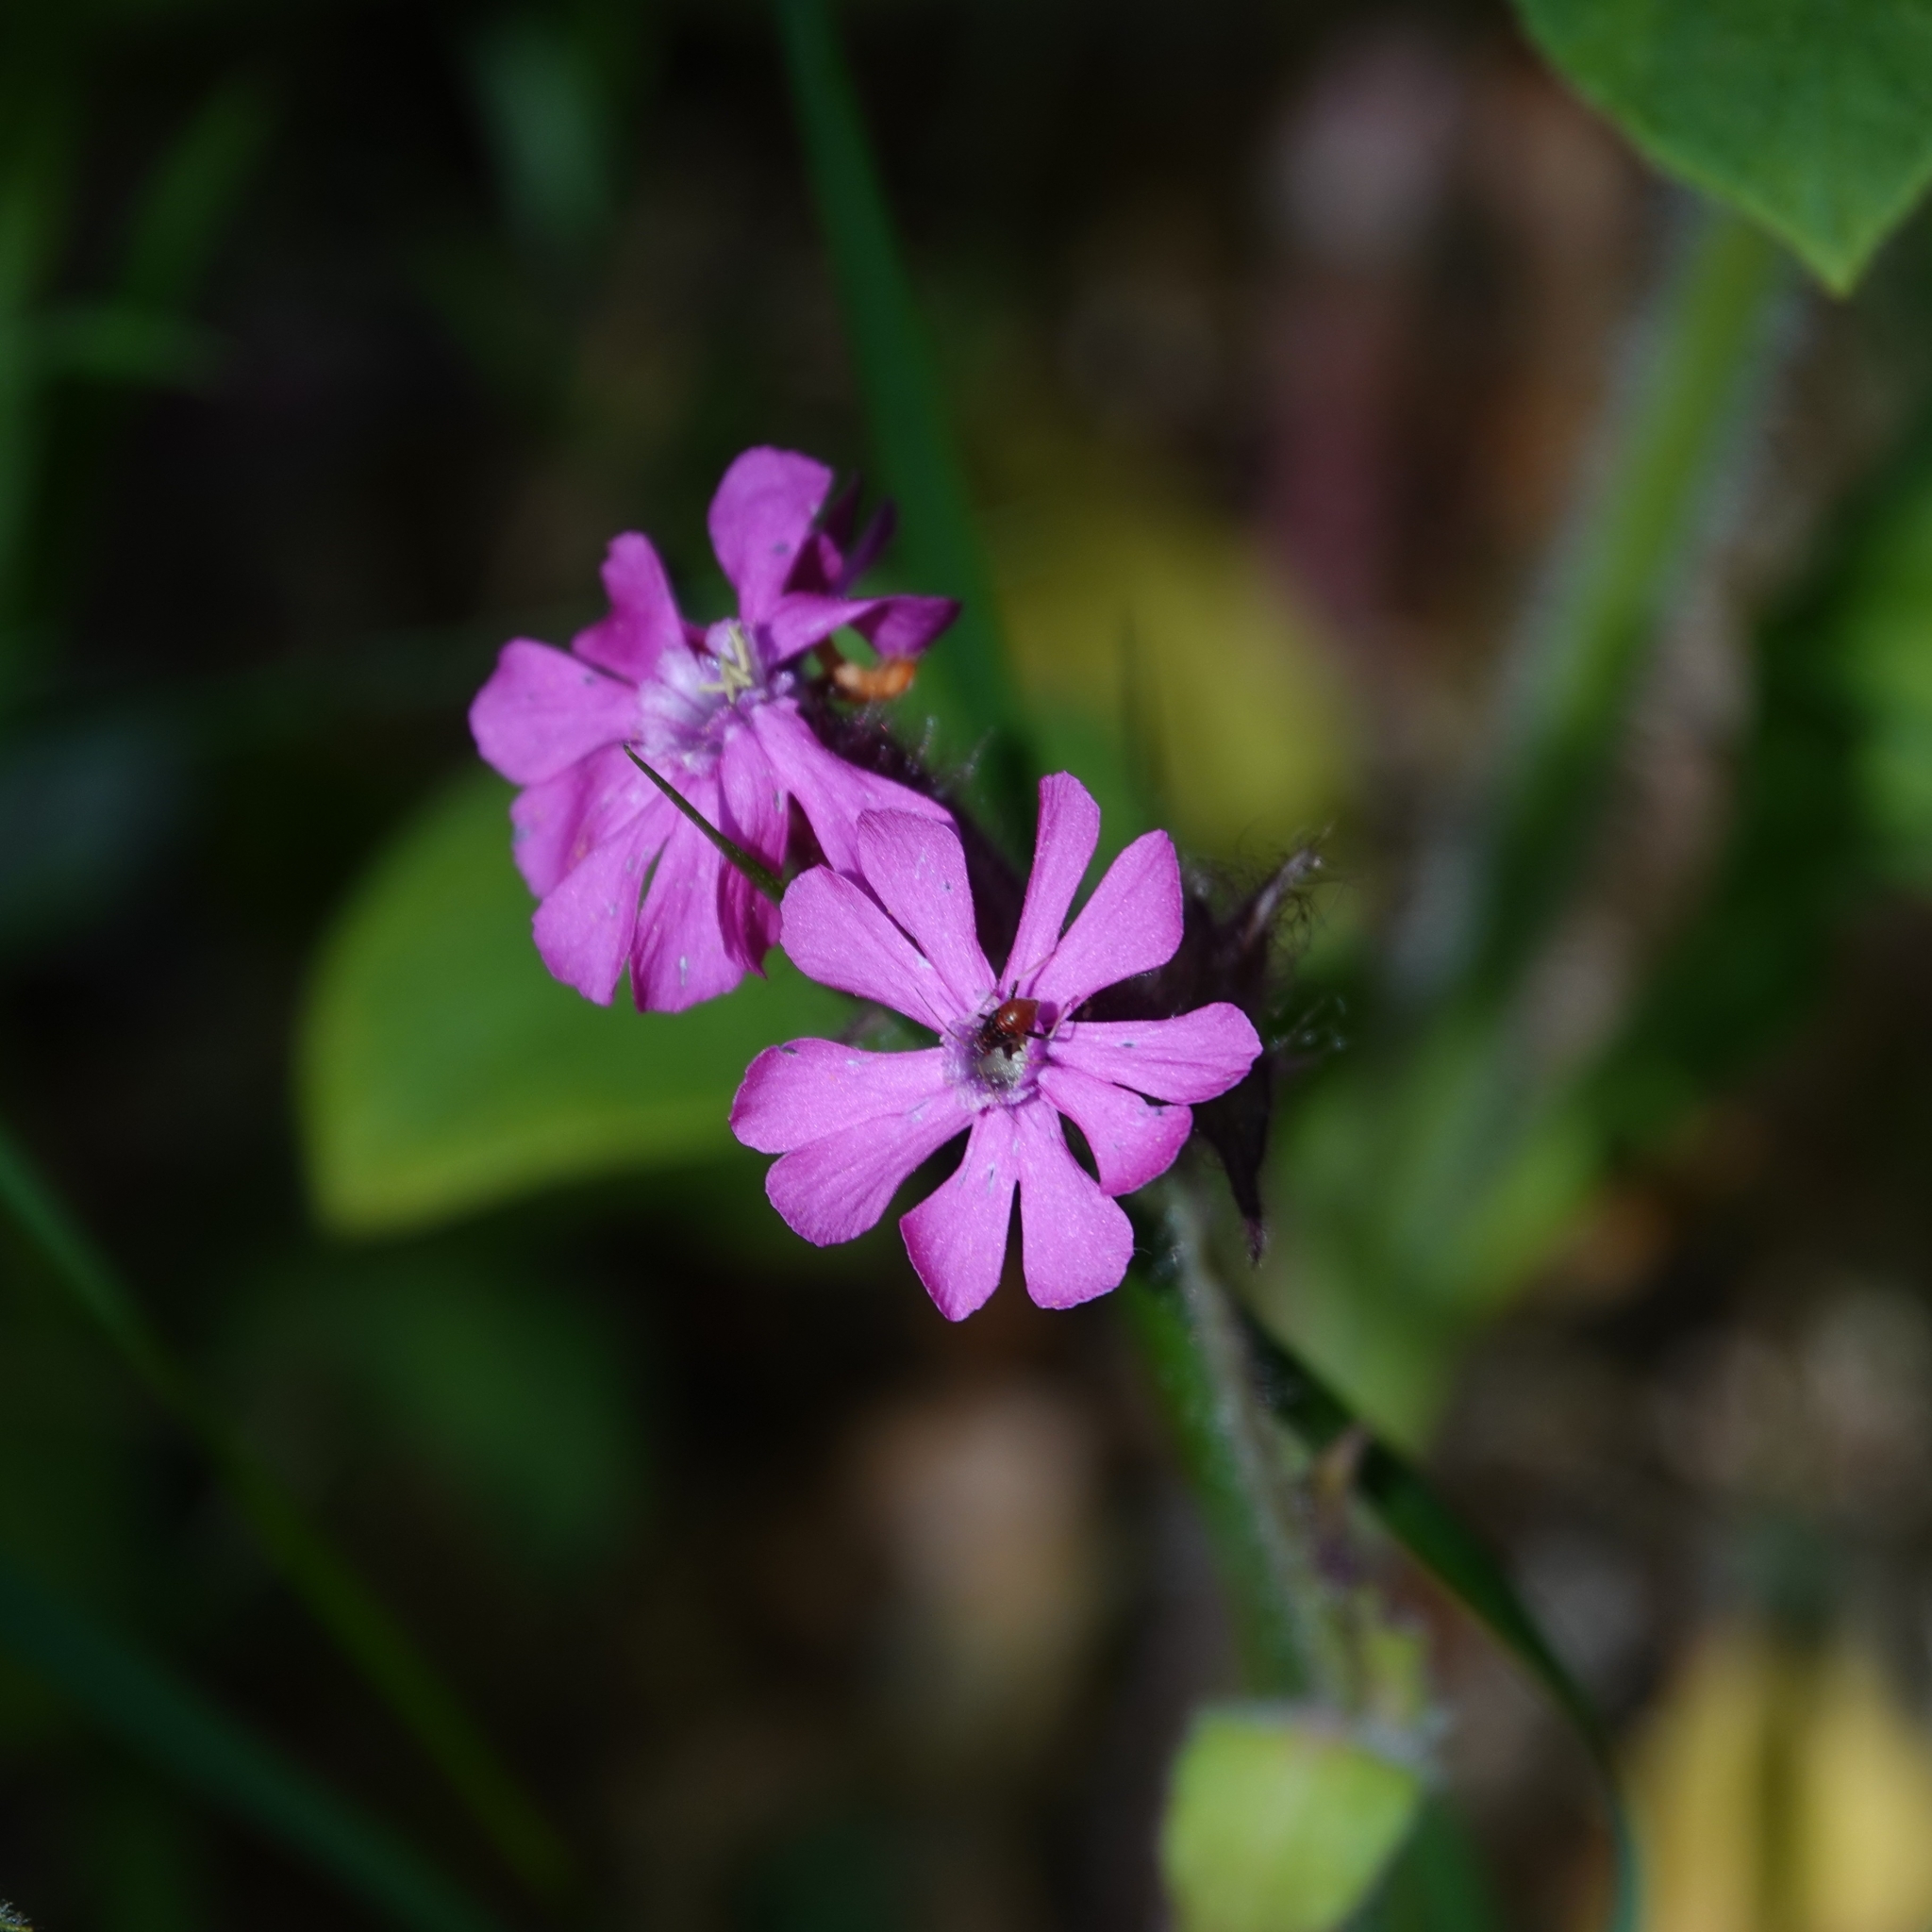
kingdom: Plantae
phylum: Tracheophyta
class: Magnoliopsida
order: Caryophyllales
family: Caryophyllaceae
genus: Silene
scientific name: Silene dioica
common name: Red campion
